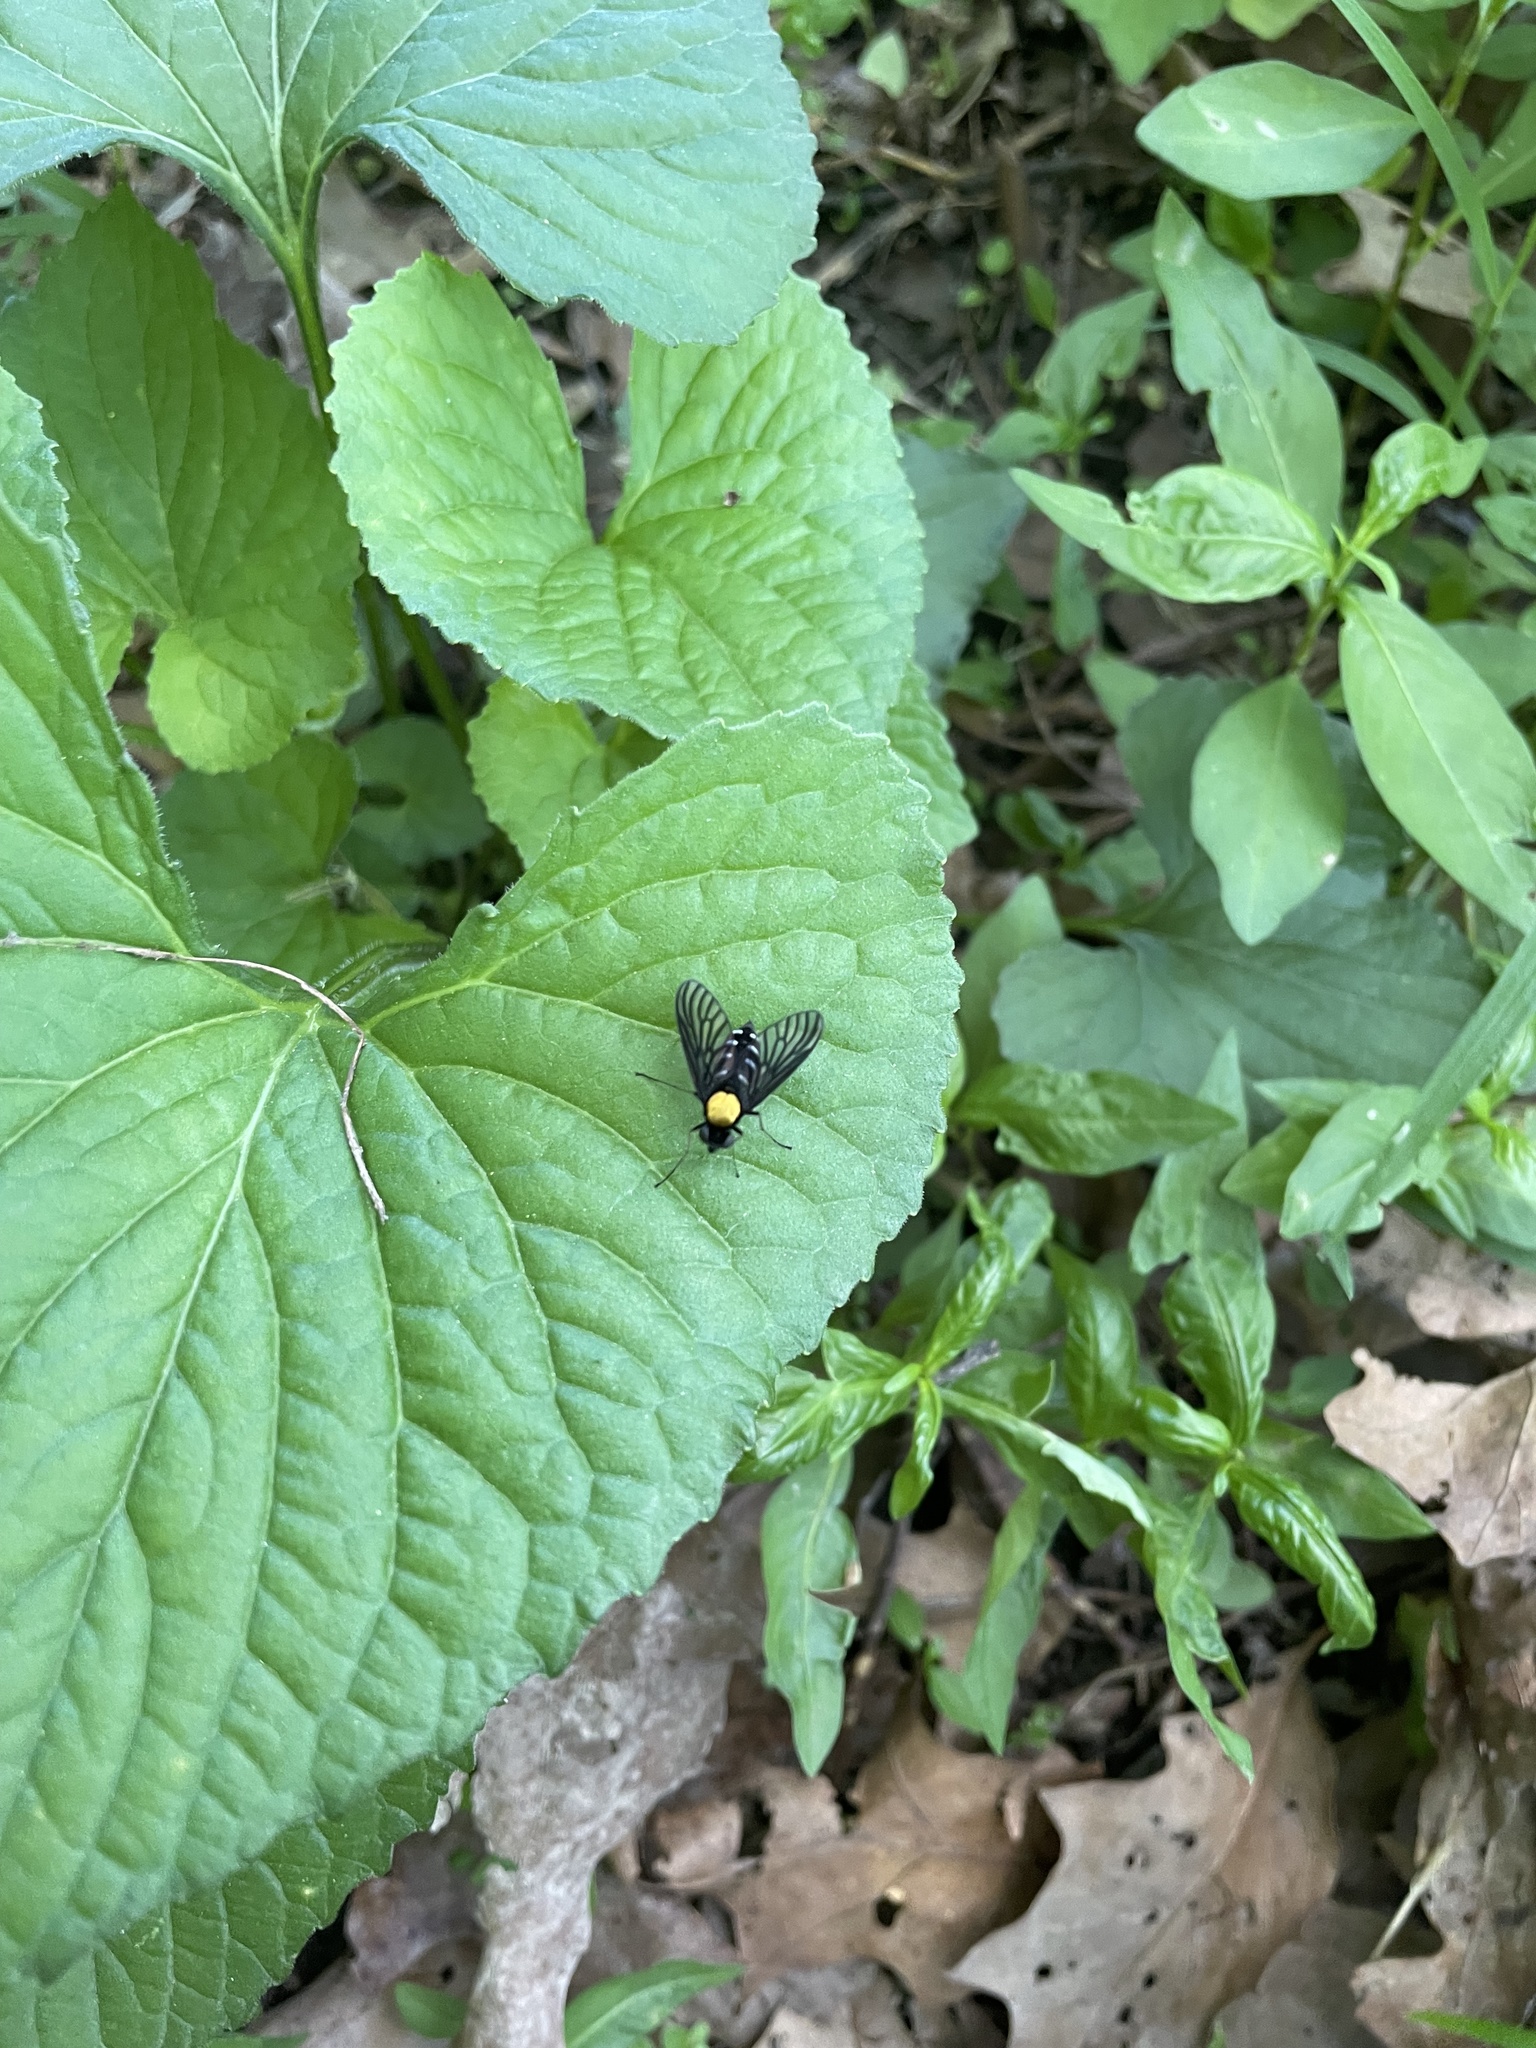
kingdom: Animalia
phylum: Arthropoda
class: Insecta
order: Diptera
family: Rhagionidae
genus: Chrysopilus
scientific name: Chrysopilus thoracicus
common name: Golden-backed snipe fly
